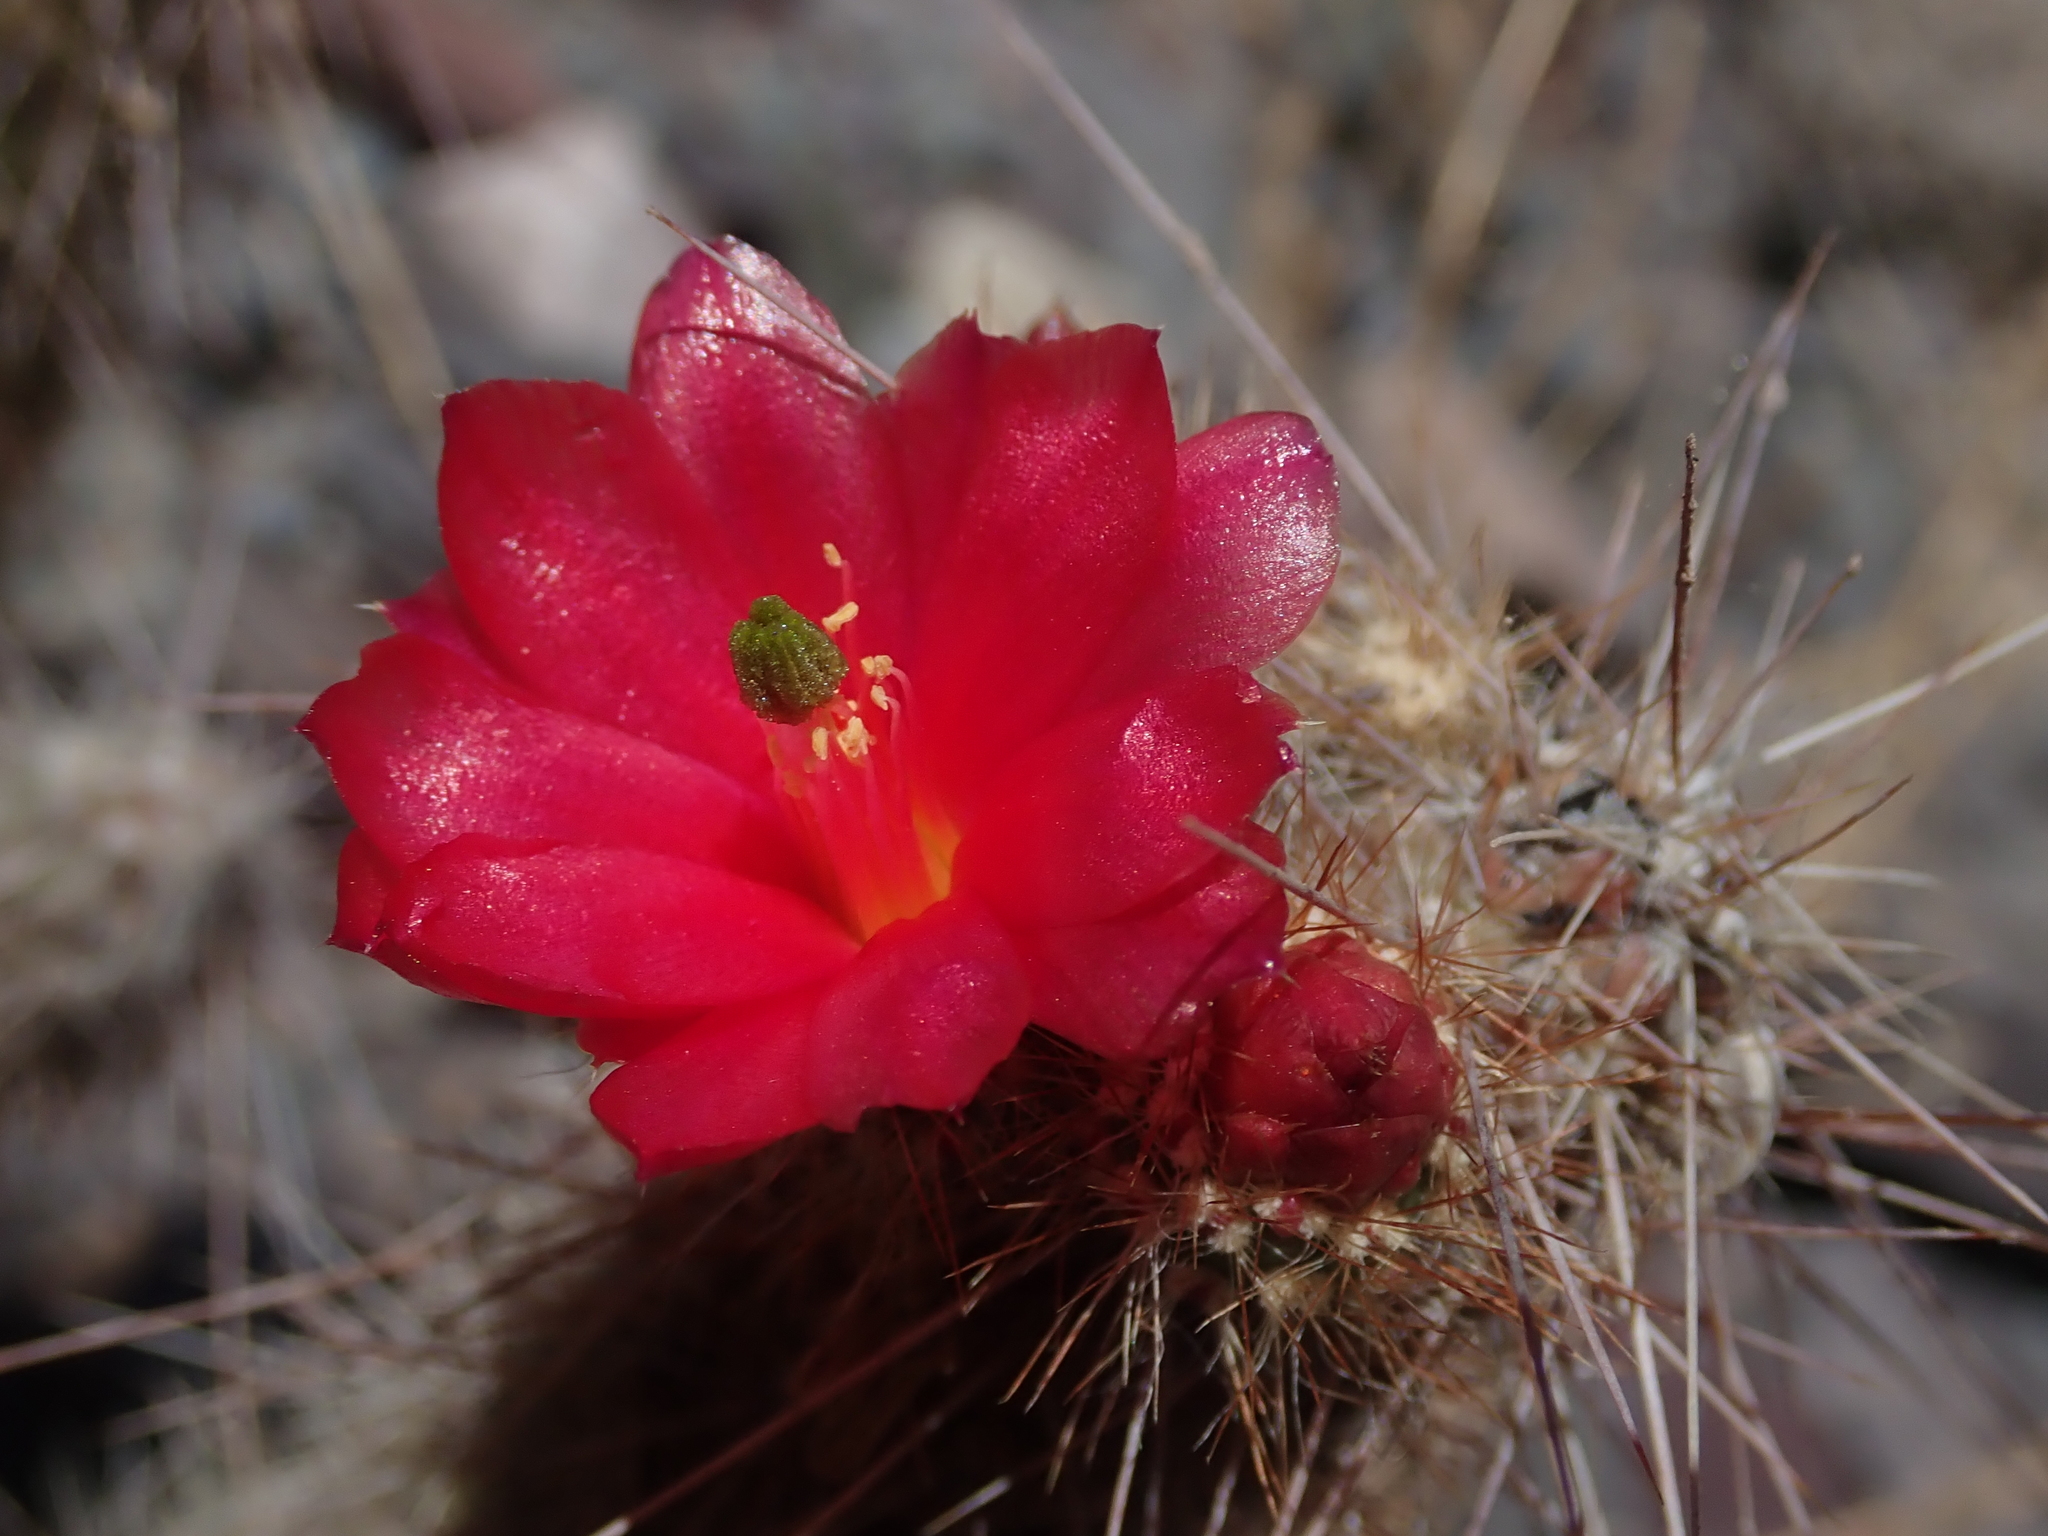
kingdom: Plantae
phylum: Tracheophyta
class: Magnoliopsida
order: Caryophyllales
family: Cactaceae
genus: Austrocylindropuntia
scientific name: Austrocylindropuntia shaferi
